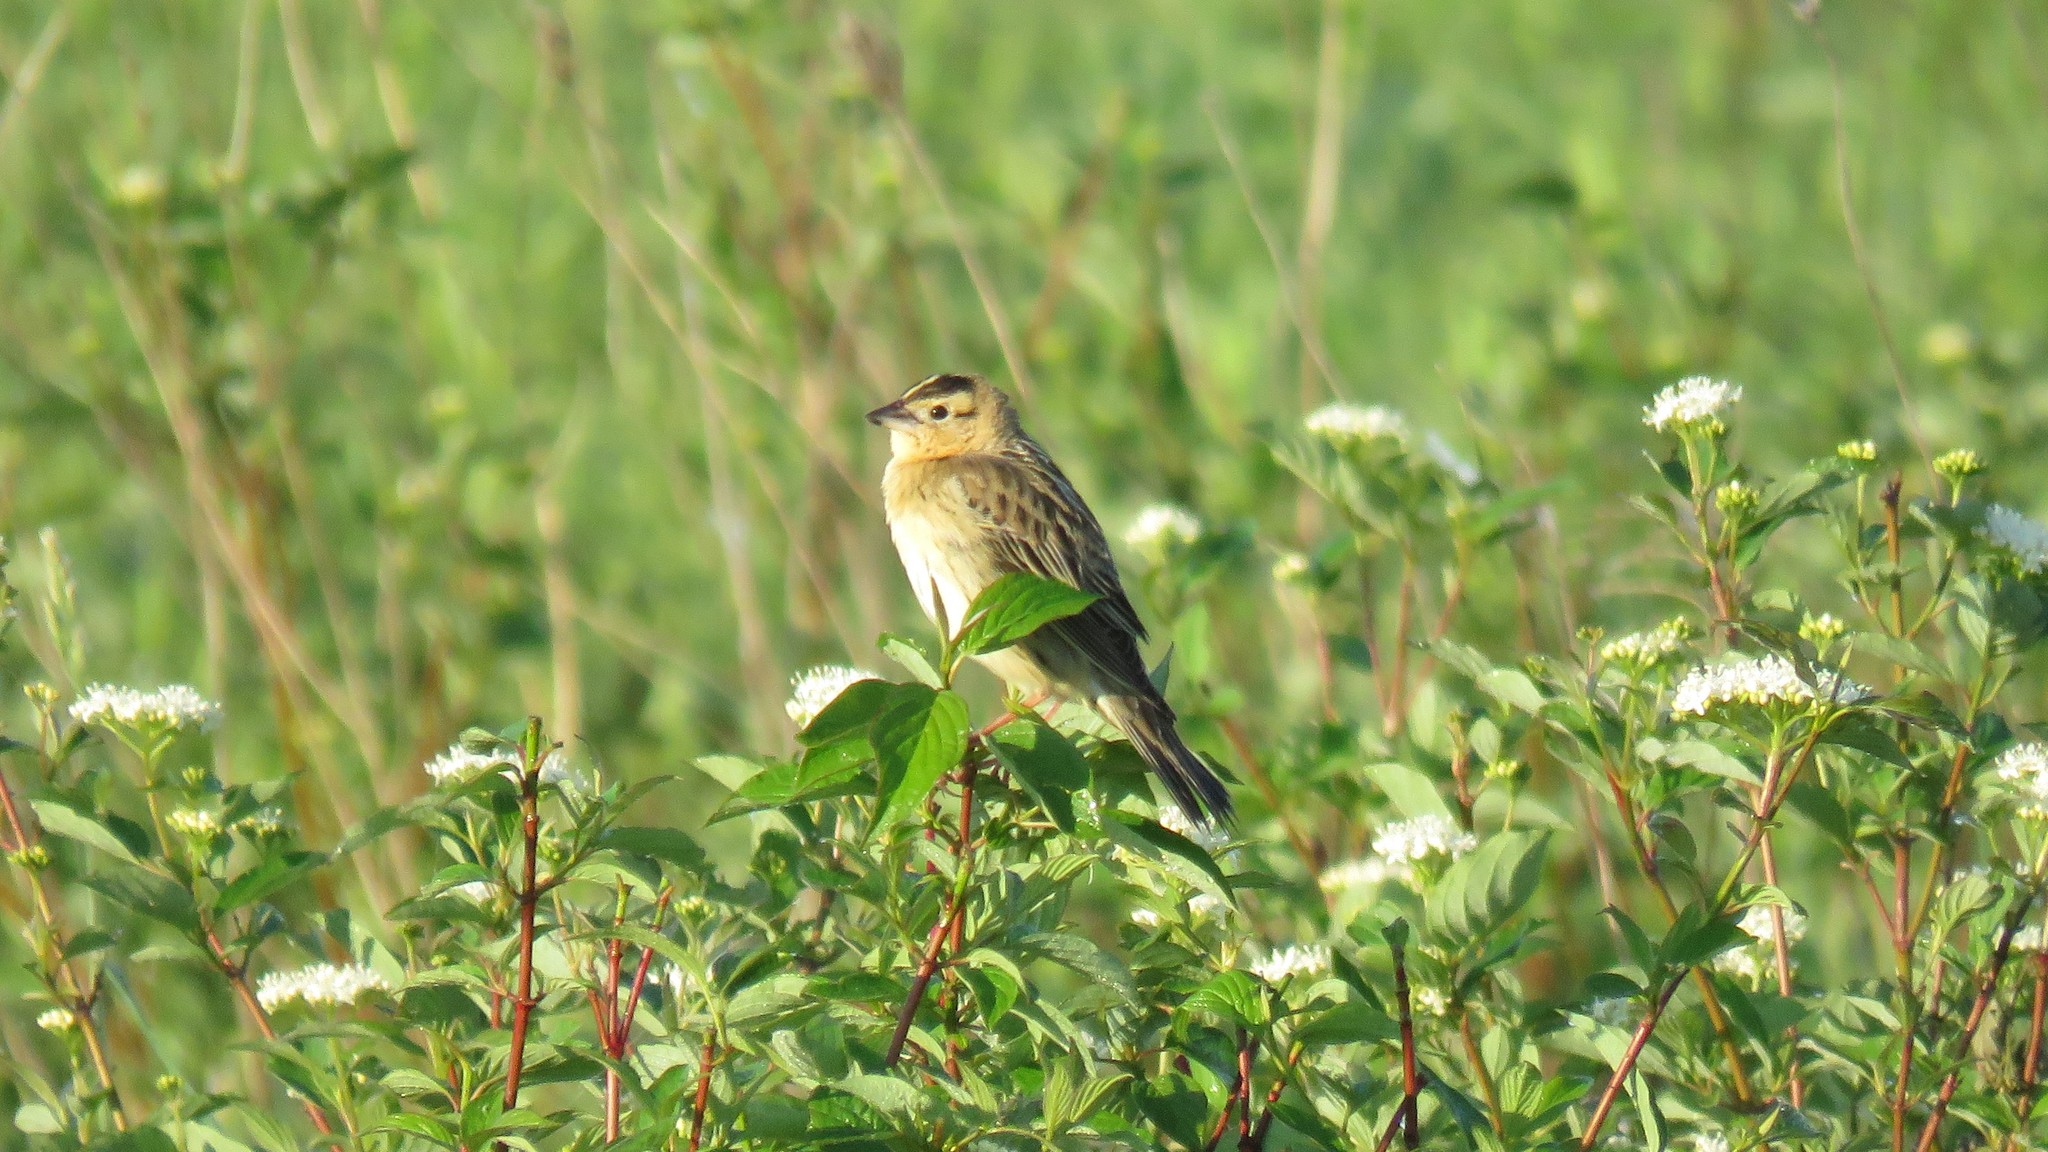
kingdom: Animalia
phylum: Chordata
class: Aves
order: Passeriformes
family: Icteridae
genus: Dolichonyx
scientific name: Dolichonyx oryzivorus
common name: Bobolink
